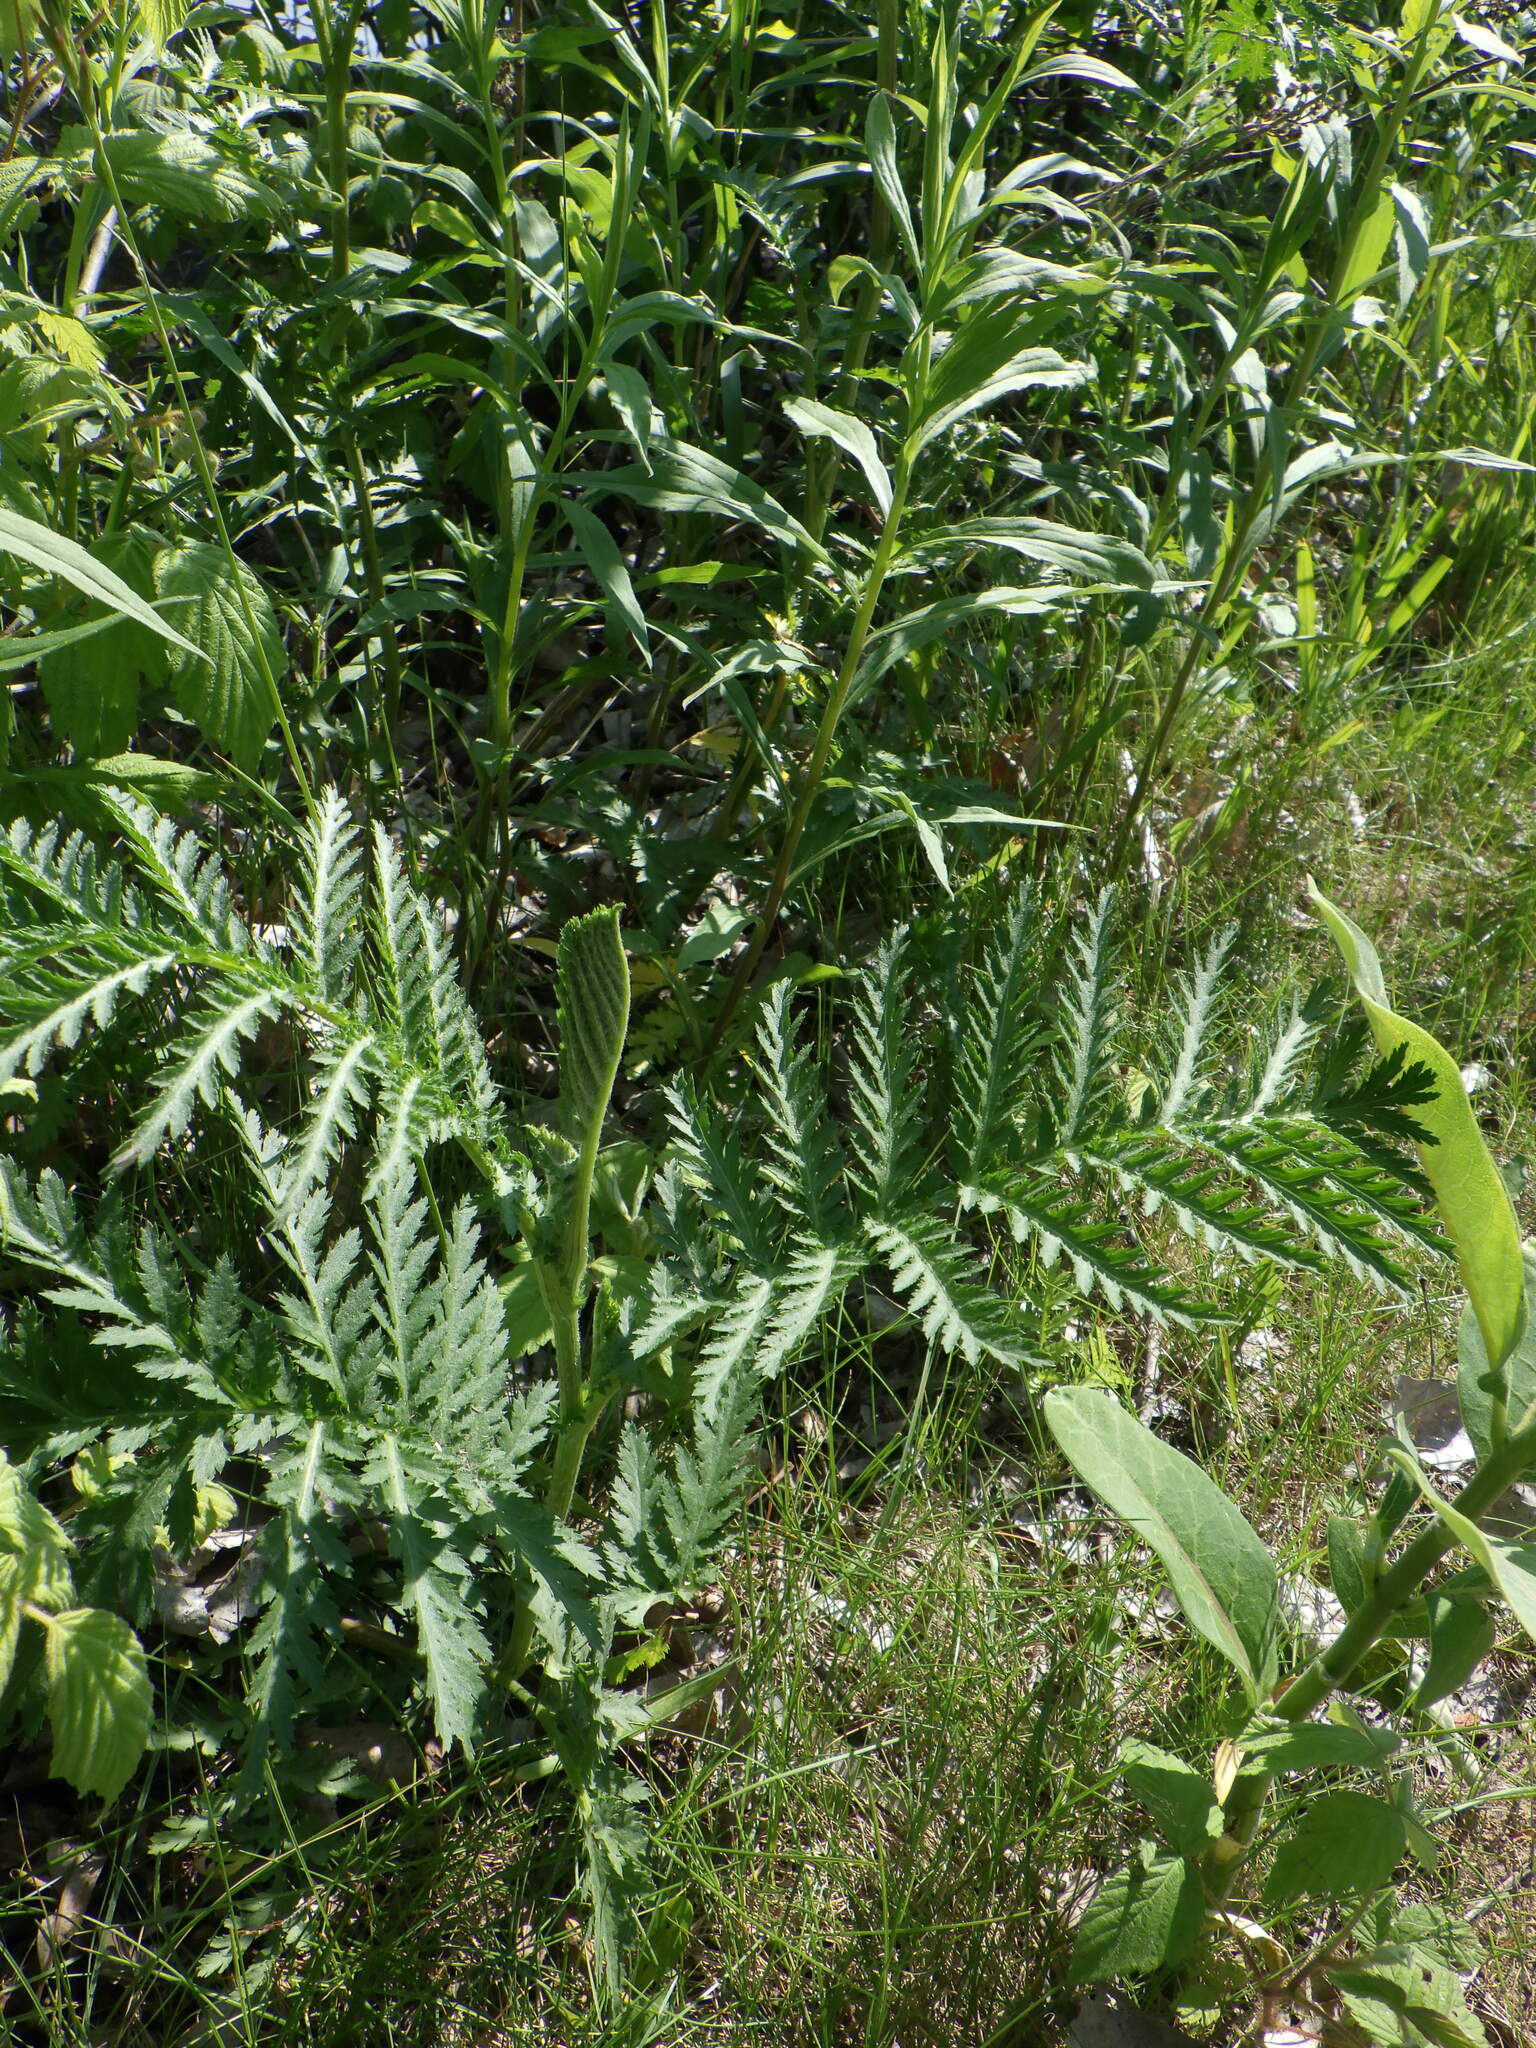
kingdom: Plantae
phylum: Tracheophyta
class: Magnoliopsida
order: Asterales
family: Asteraceae
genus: Tanacetum
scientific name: Tanacetum vulgare
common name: Common tansy
